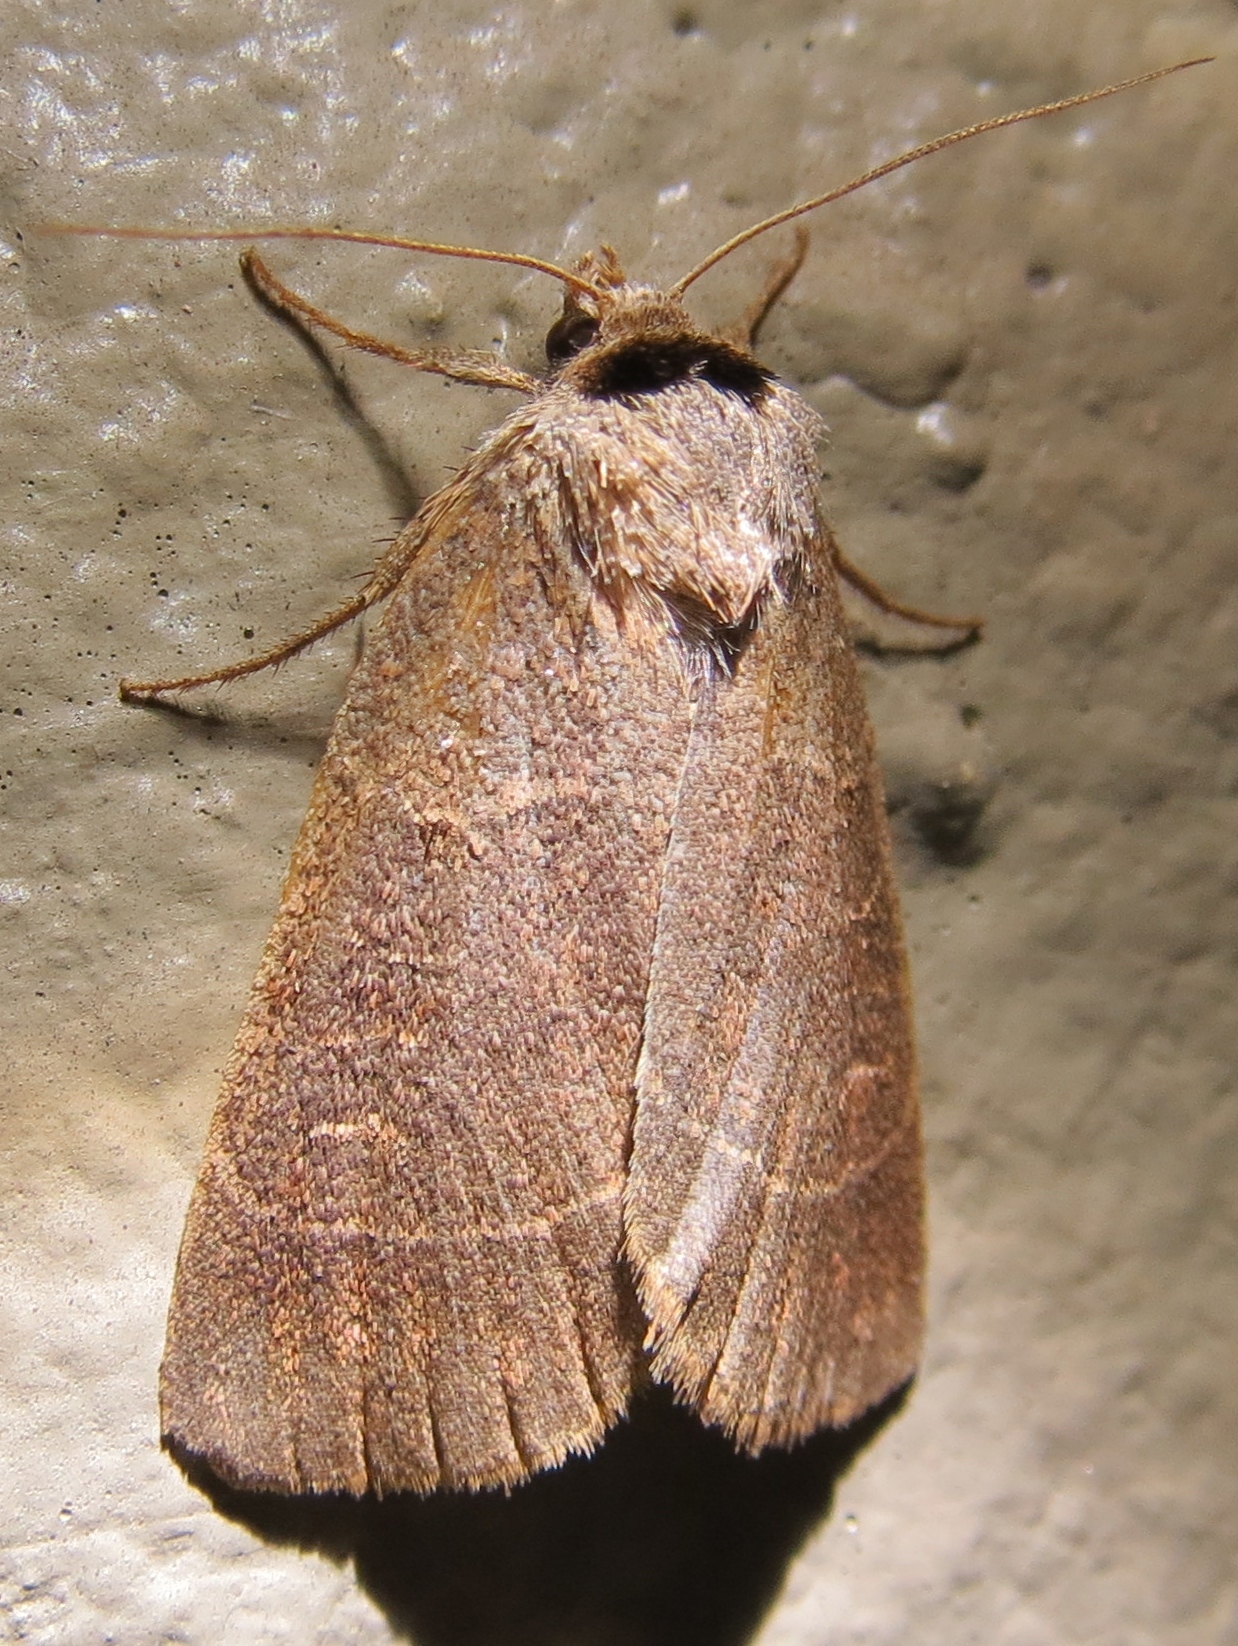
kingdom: Animalia
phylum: Arthropoda
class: Insecta
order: Lepidoptera
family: Noctuidae
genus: Agnorisma
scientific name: Agnorisma badinodis
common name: Pale-banded dart
